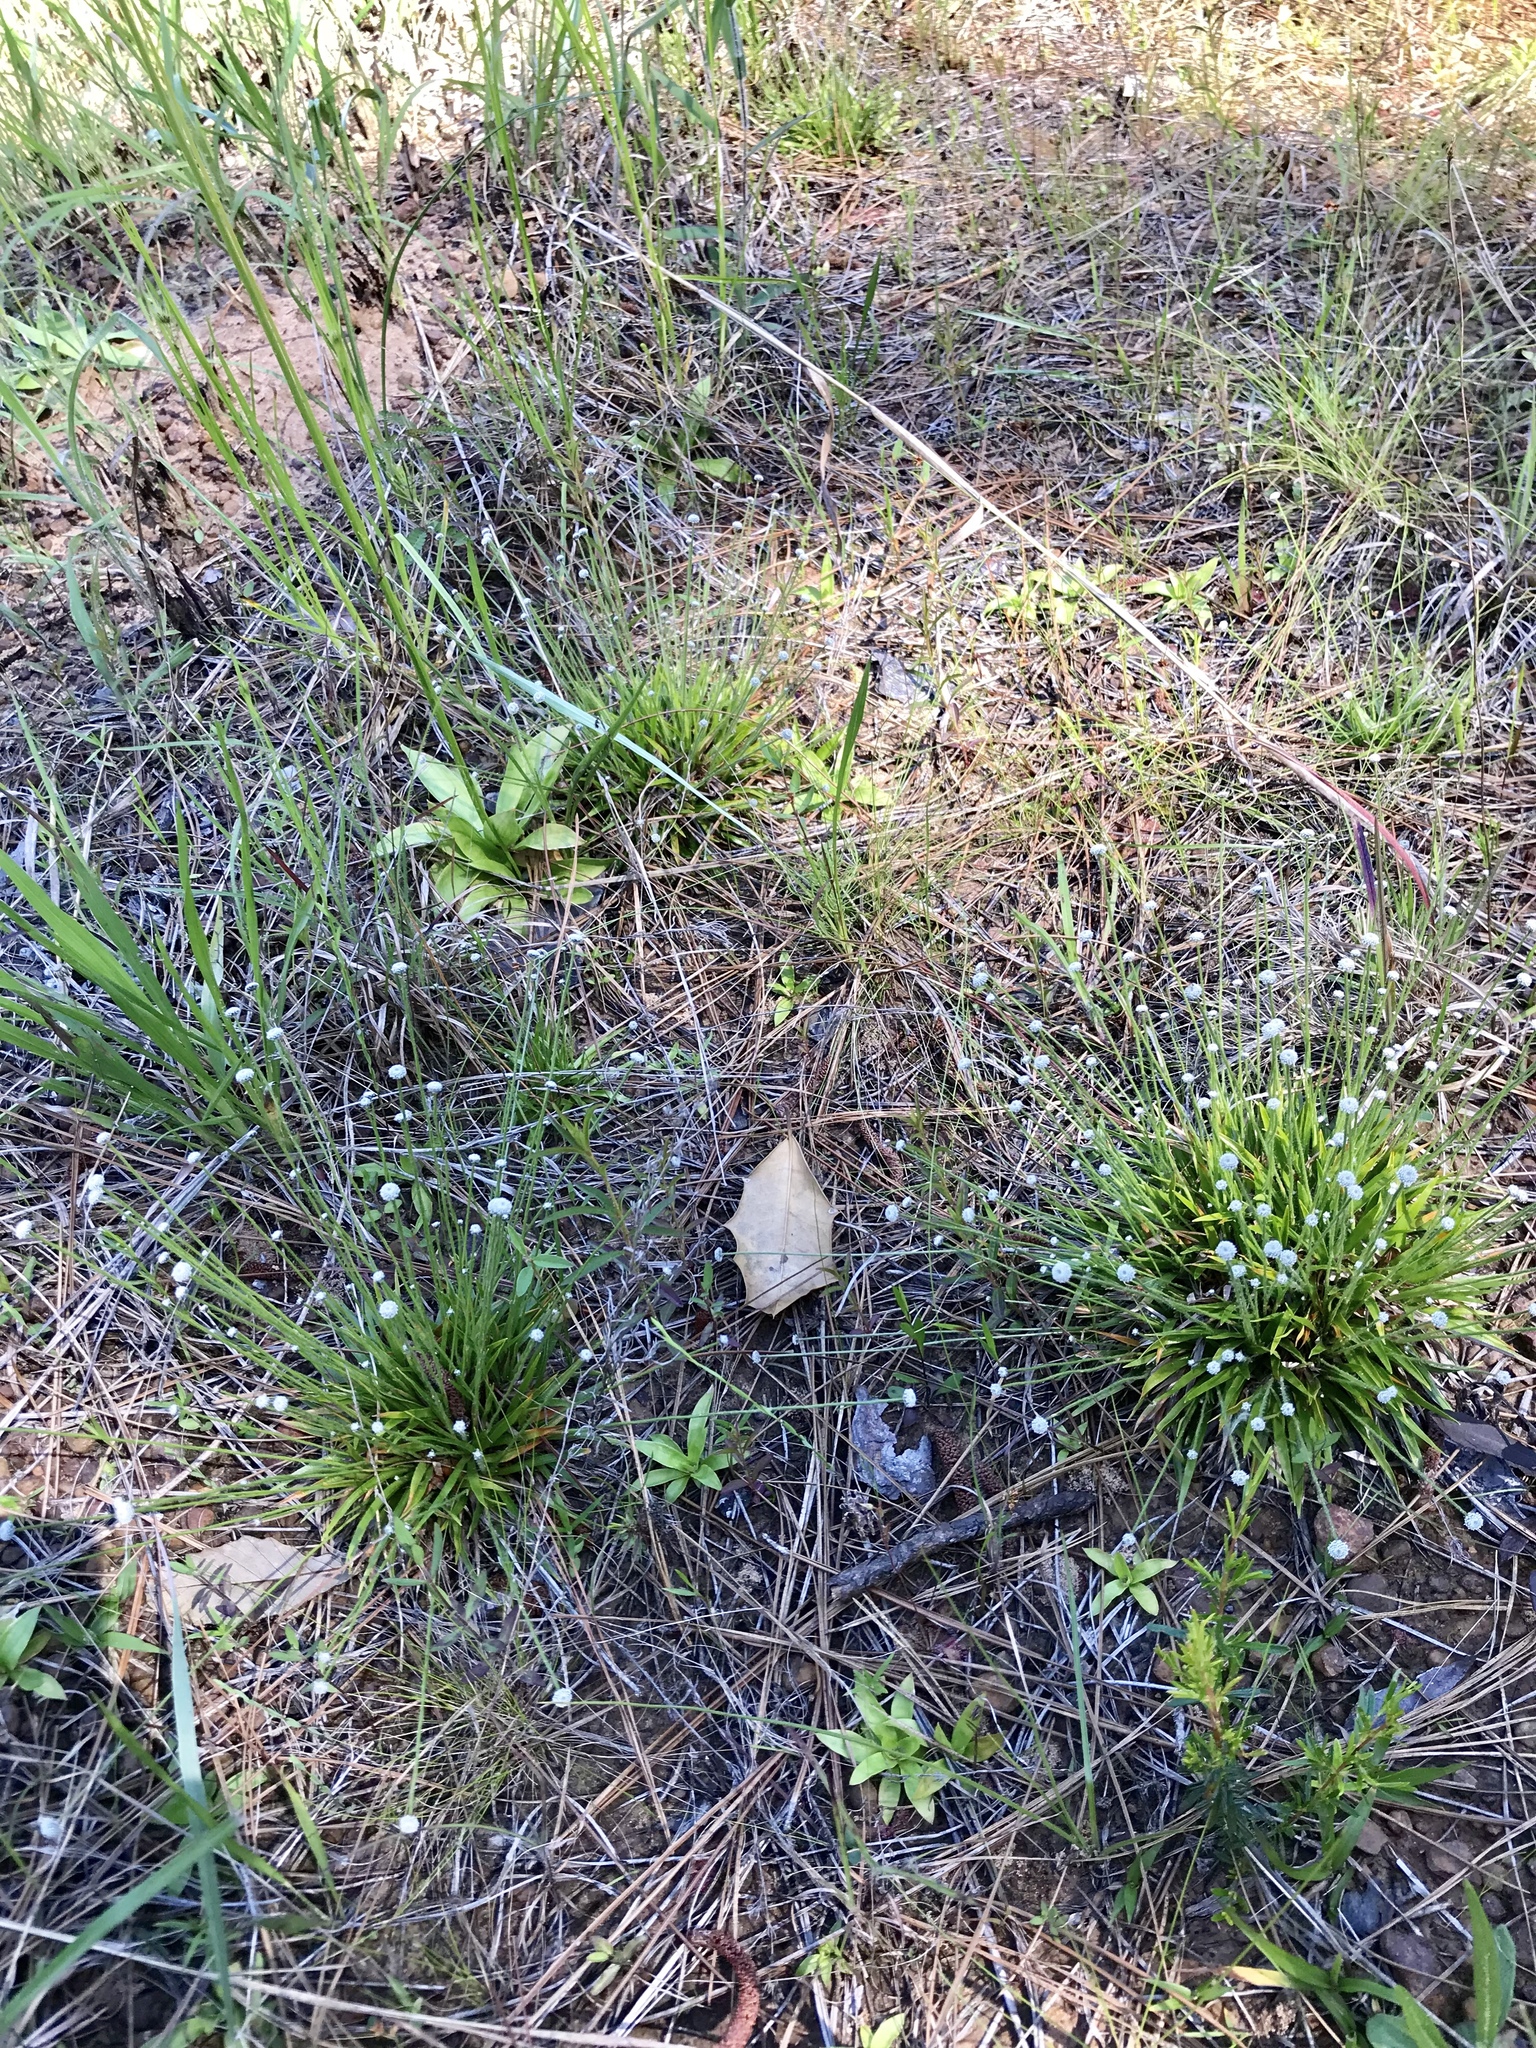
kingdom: Plantae
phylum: Tracheophyta
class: Liliopsida
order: Poales
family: Eriocaulaceae
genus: Paepalanthus
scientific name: Paepalanthus anceps
